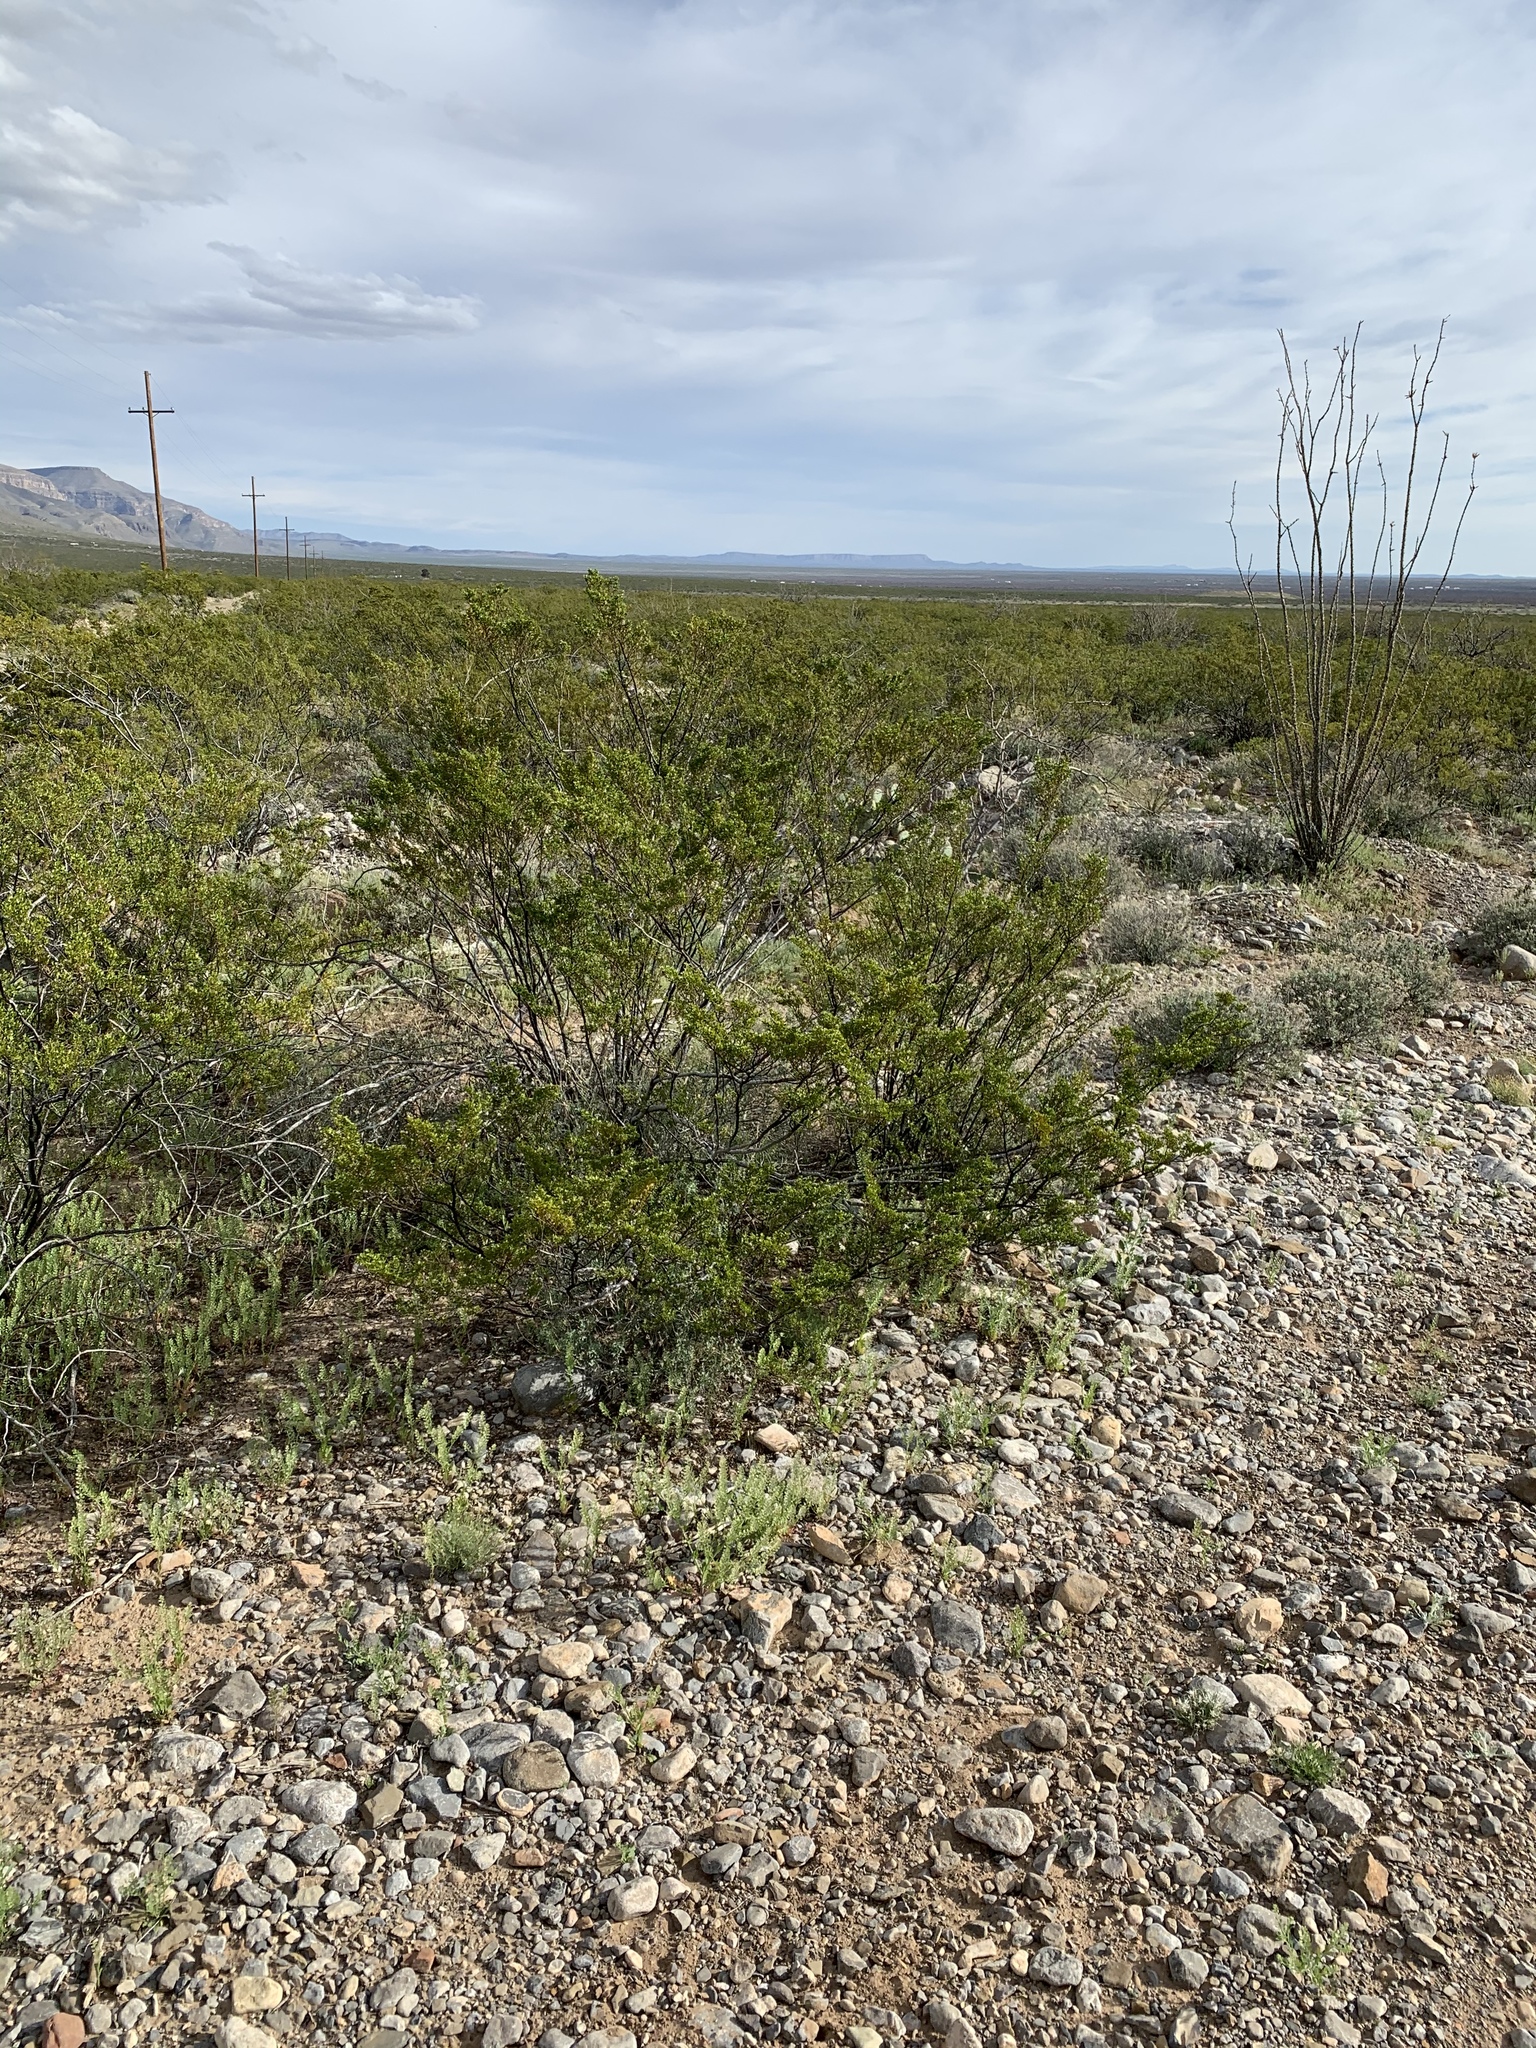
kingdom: Plantae
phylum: Tracheophyta
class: Magnoliopsida
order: Zygophyllales
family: Zygophyllaceae
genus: Larrea
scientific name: Larrea tridentata
